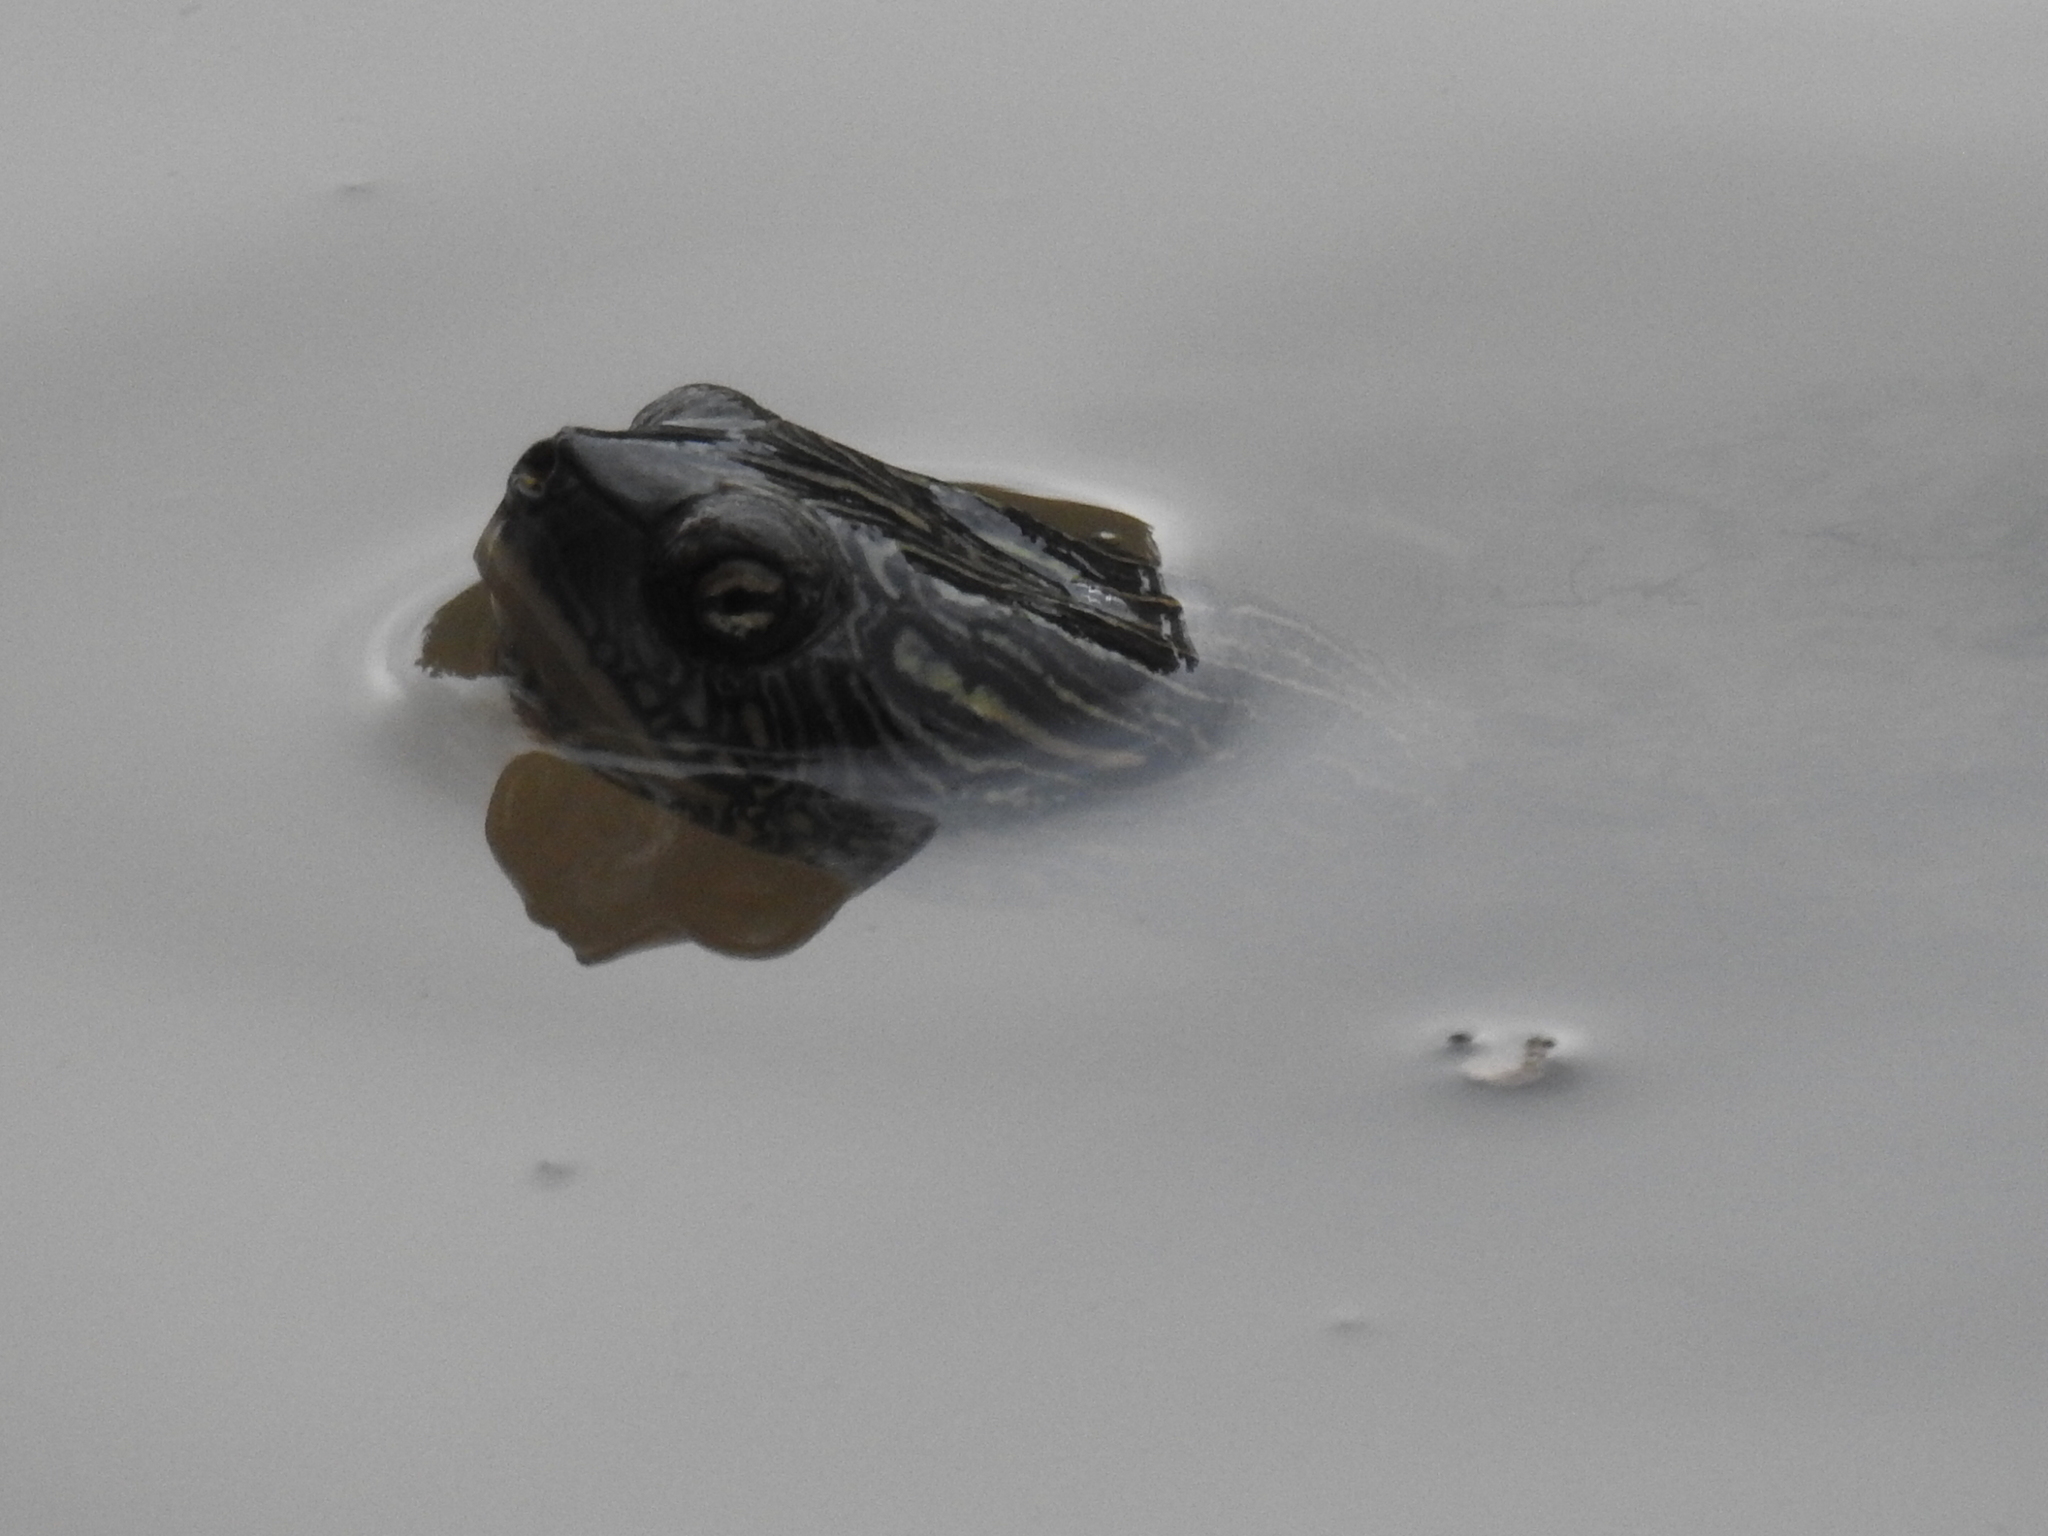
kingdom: Animalia
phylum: Chordata
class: Testudines
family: Emydidae
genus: Graptemys
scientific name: Graptemys versa
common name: Texas map turtle
